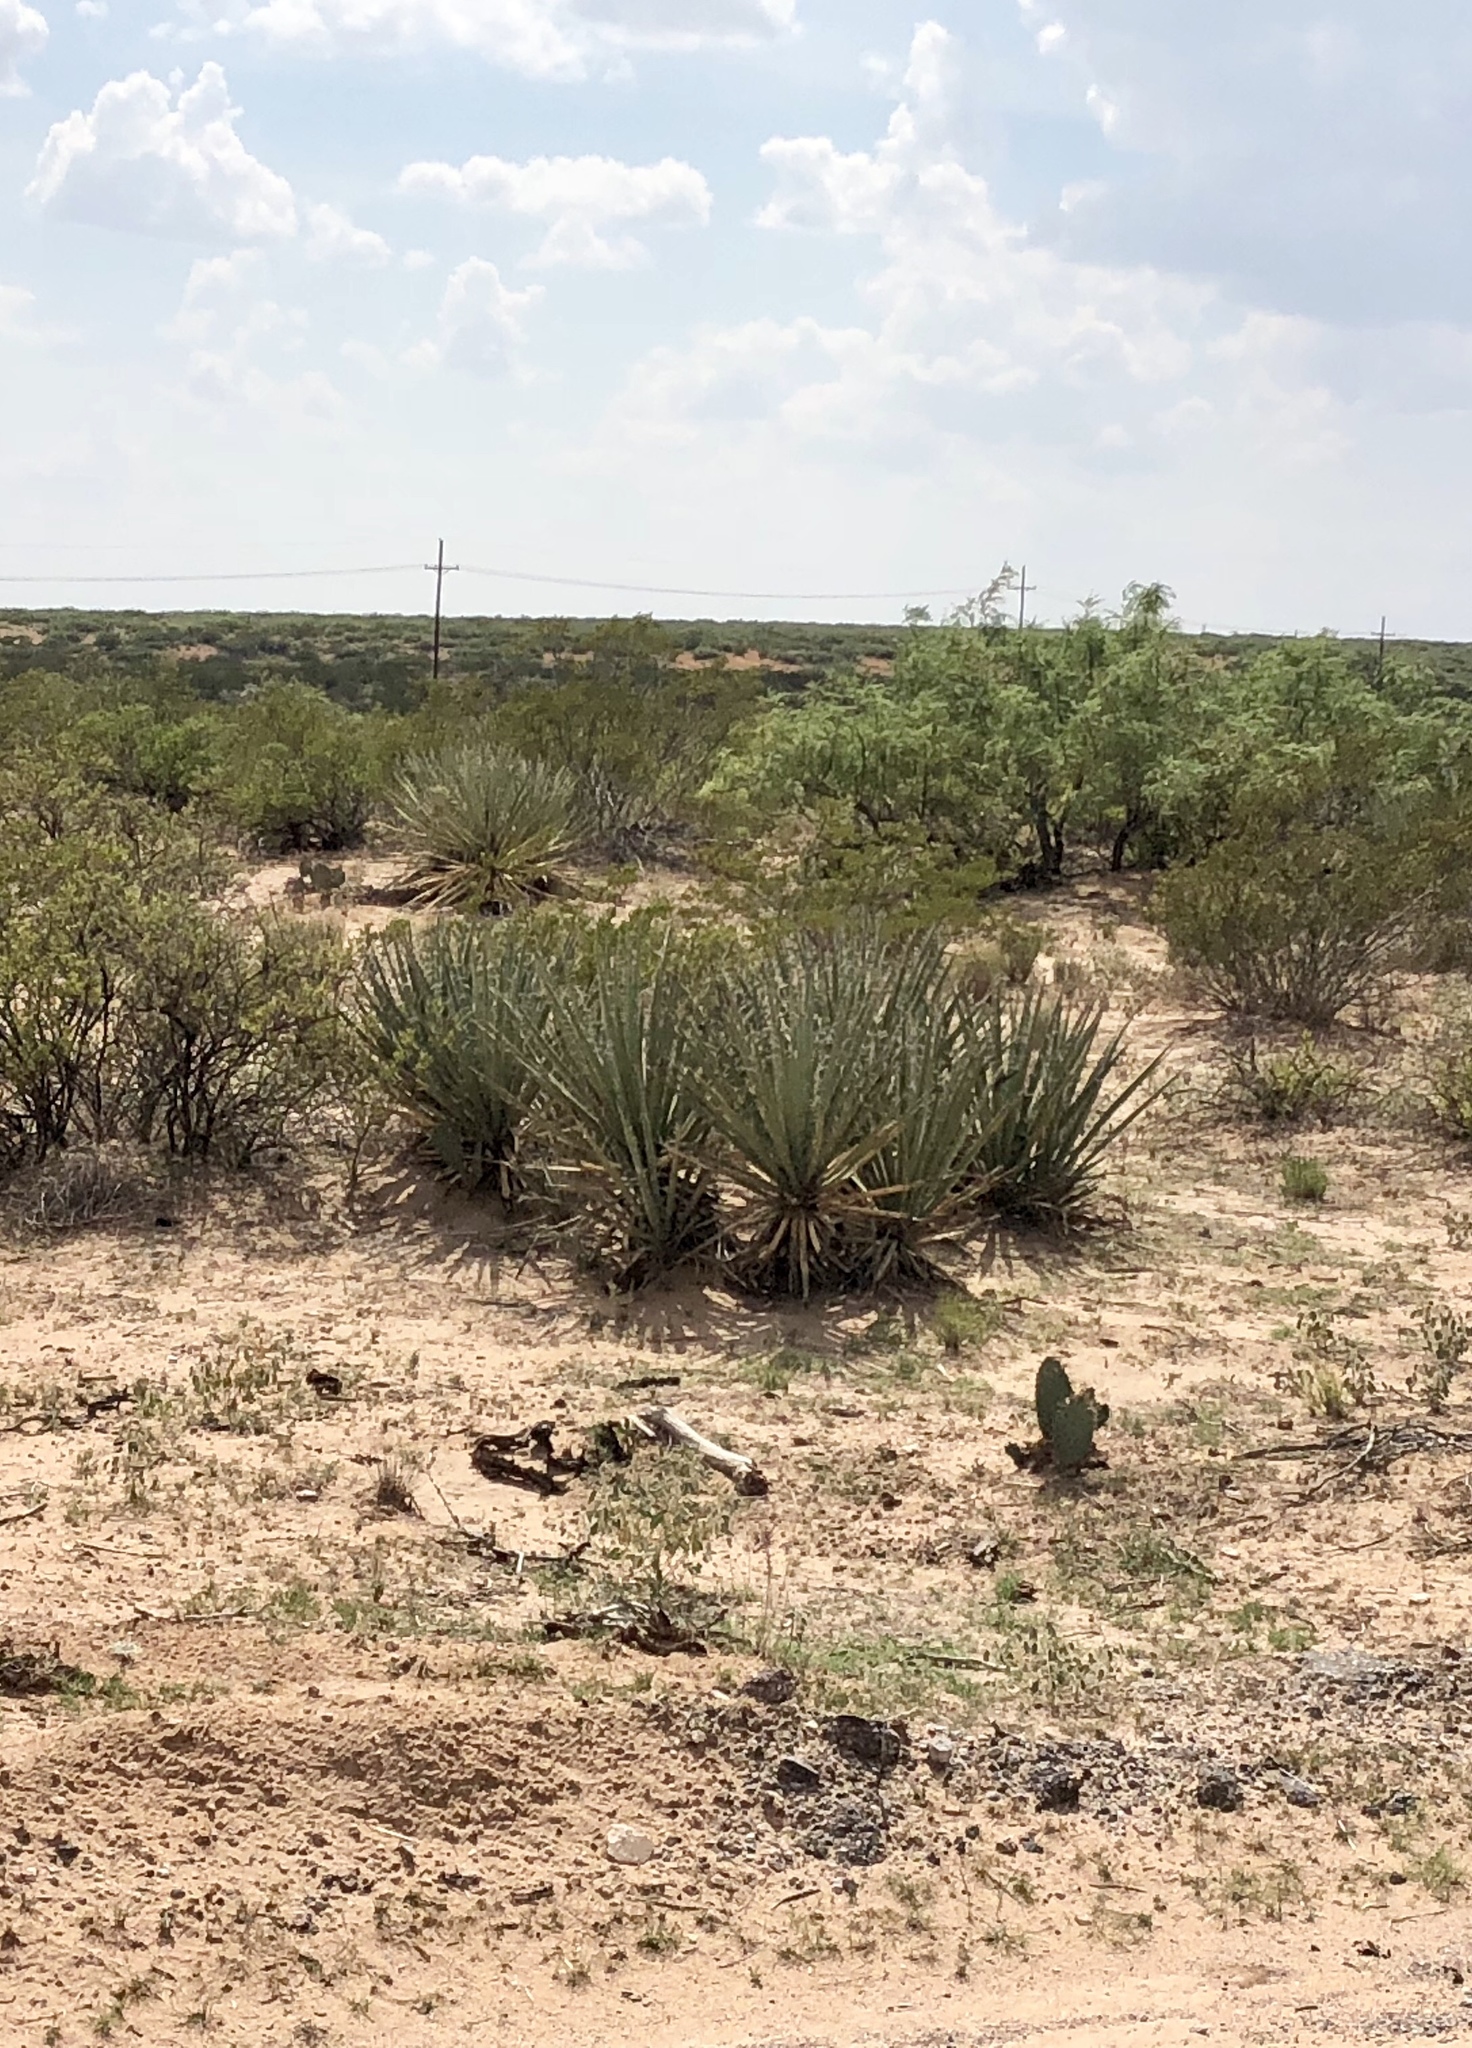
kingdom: Plantae
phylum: Tracheophyta
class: Liliopsida
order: Asparagales
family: Asparagaceae
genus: Yucca
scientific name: Yucca baccata
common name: Banana yucca
